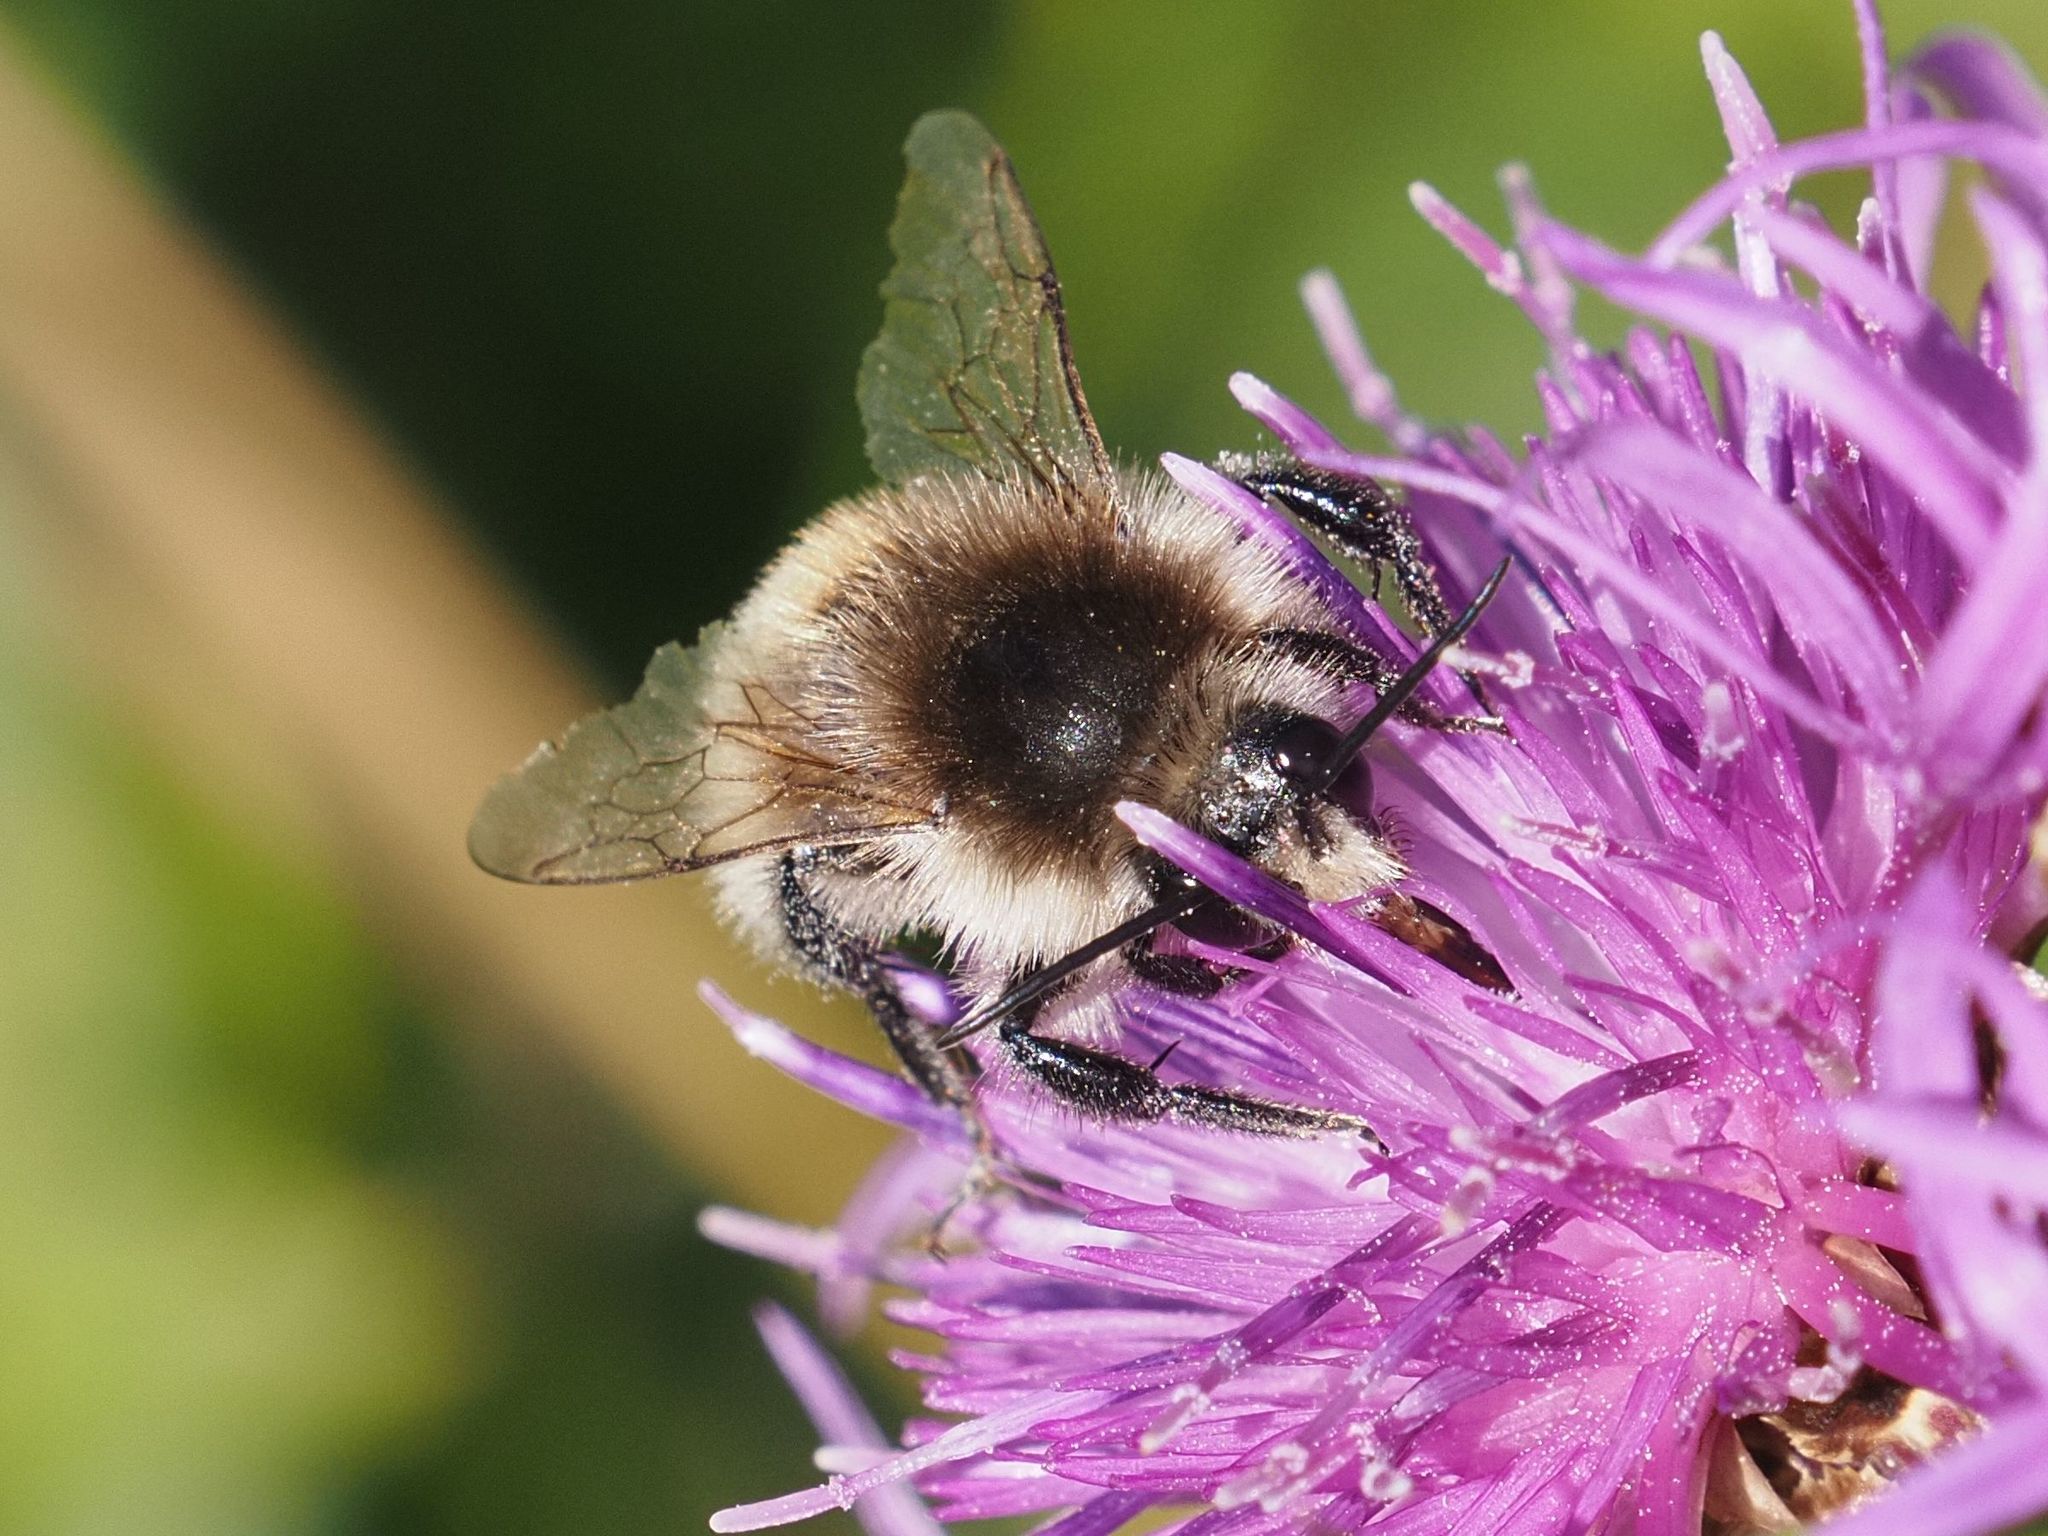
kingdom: Animalia
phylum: Arthropoda
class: Insecta
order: Hymenoptera
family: Apidae
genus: Bombus
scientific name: Bombus humilis
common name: Brown-banded carder-bee
